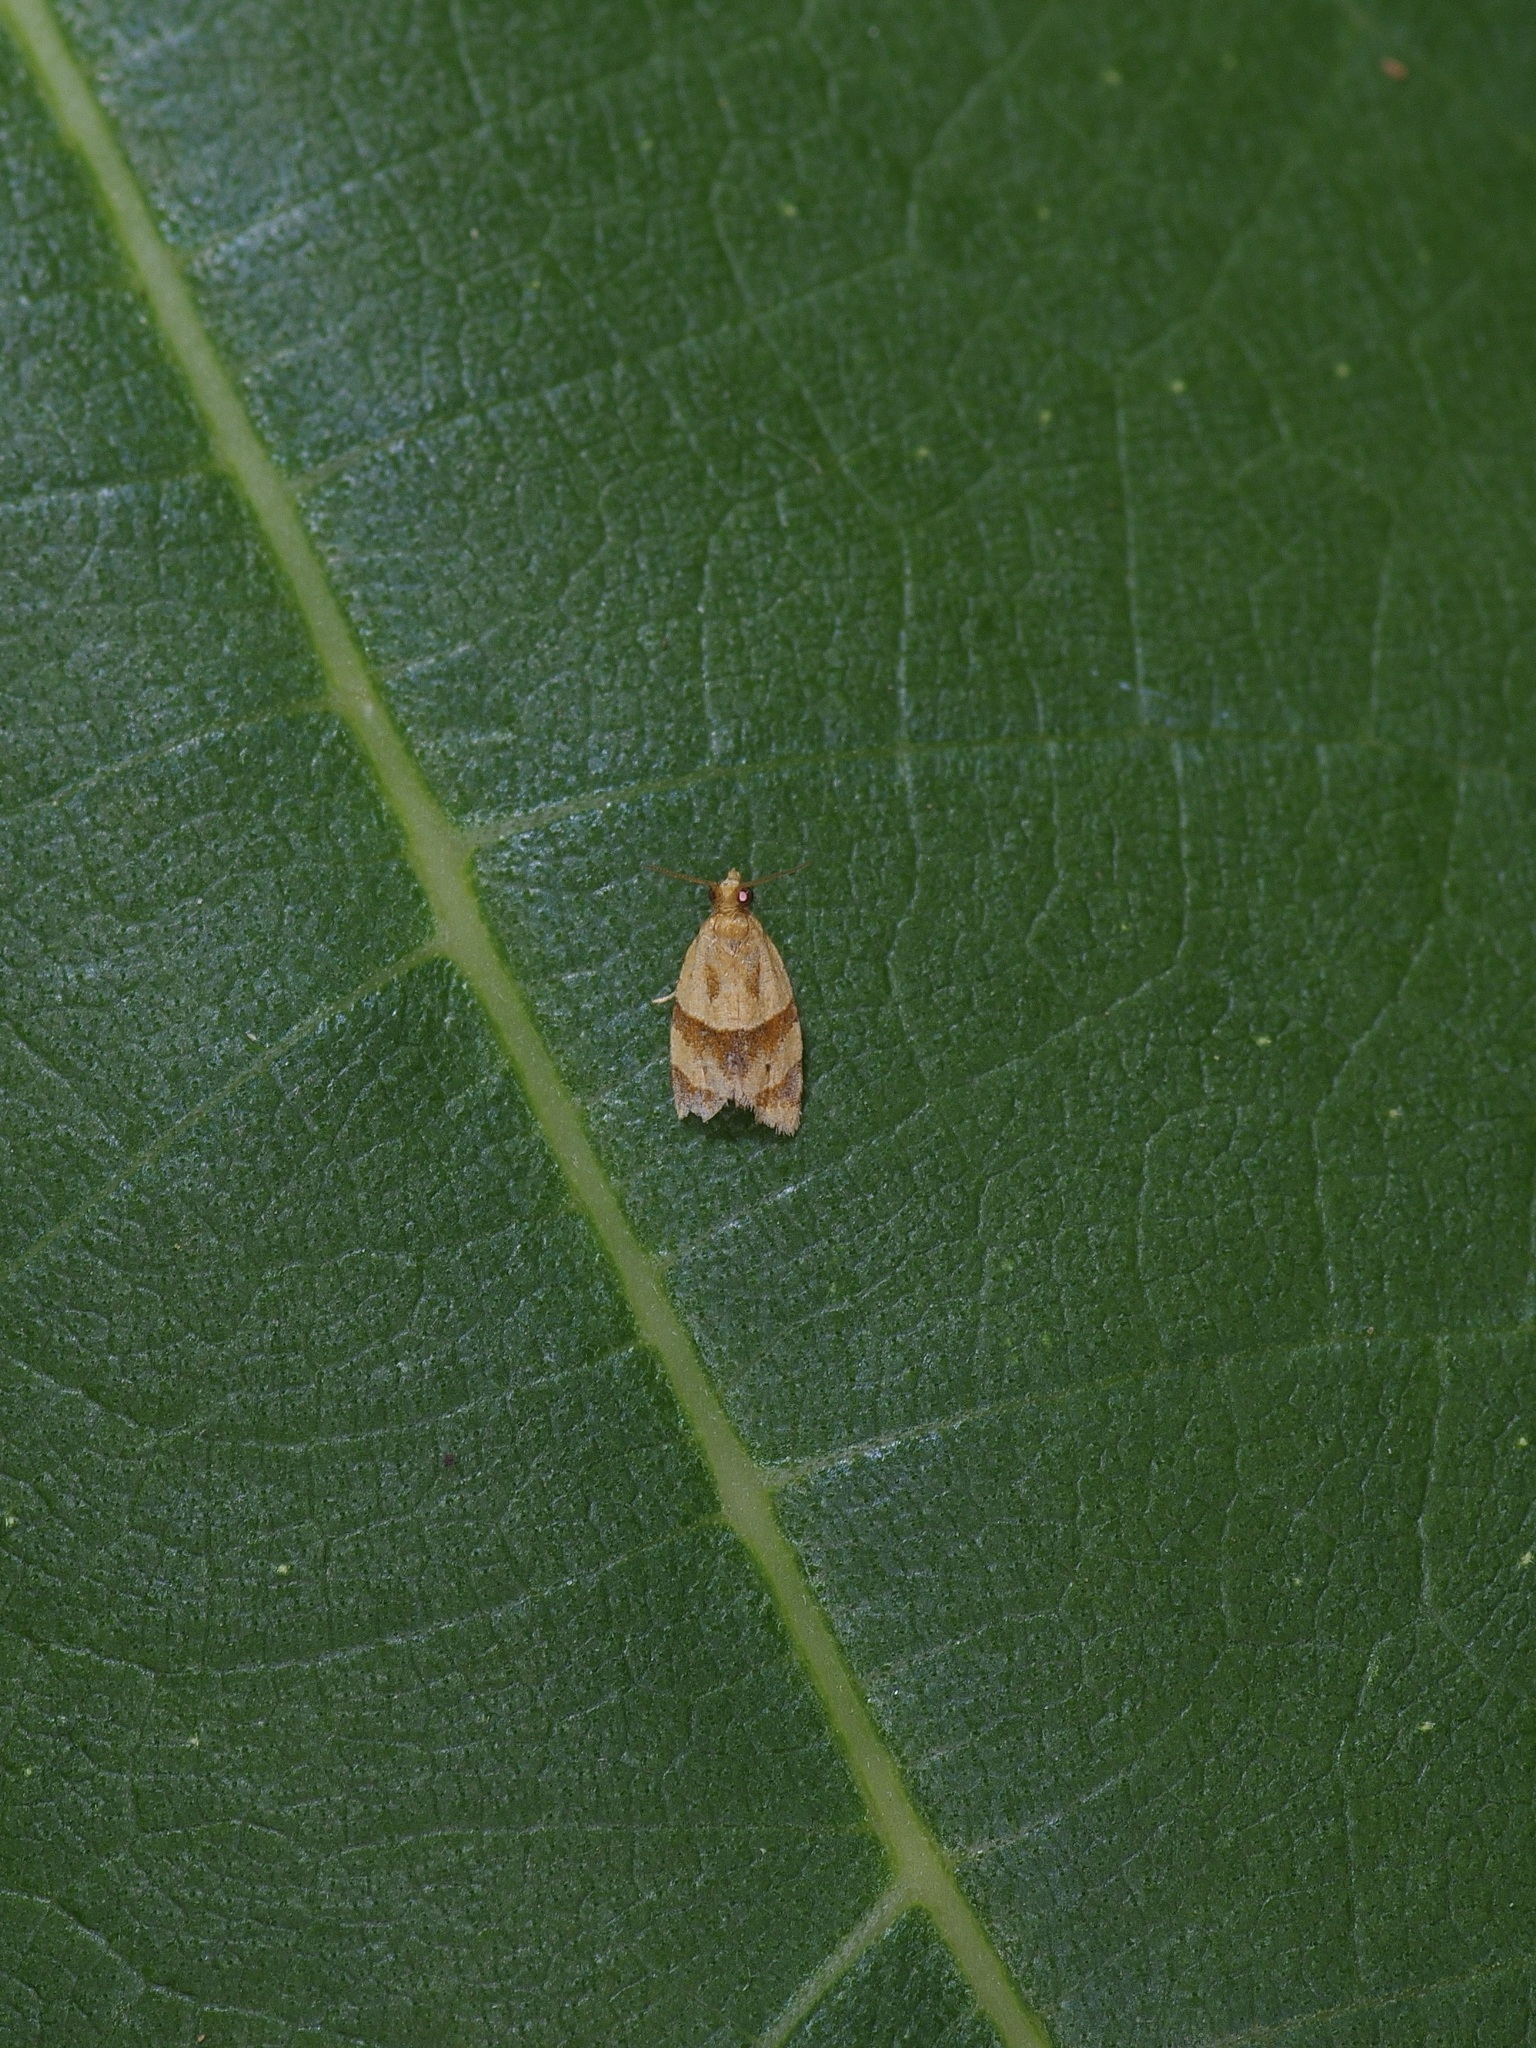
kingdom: Animalia
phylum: Arthropoda
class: Insecta
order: Lepidoptera
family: Tortricidae
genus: Clepsis
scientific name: Clepsis peritana
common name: Garden tortrix
